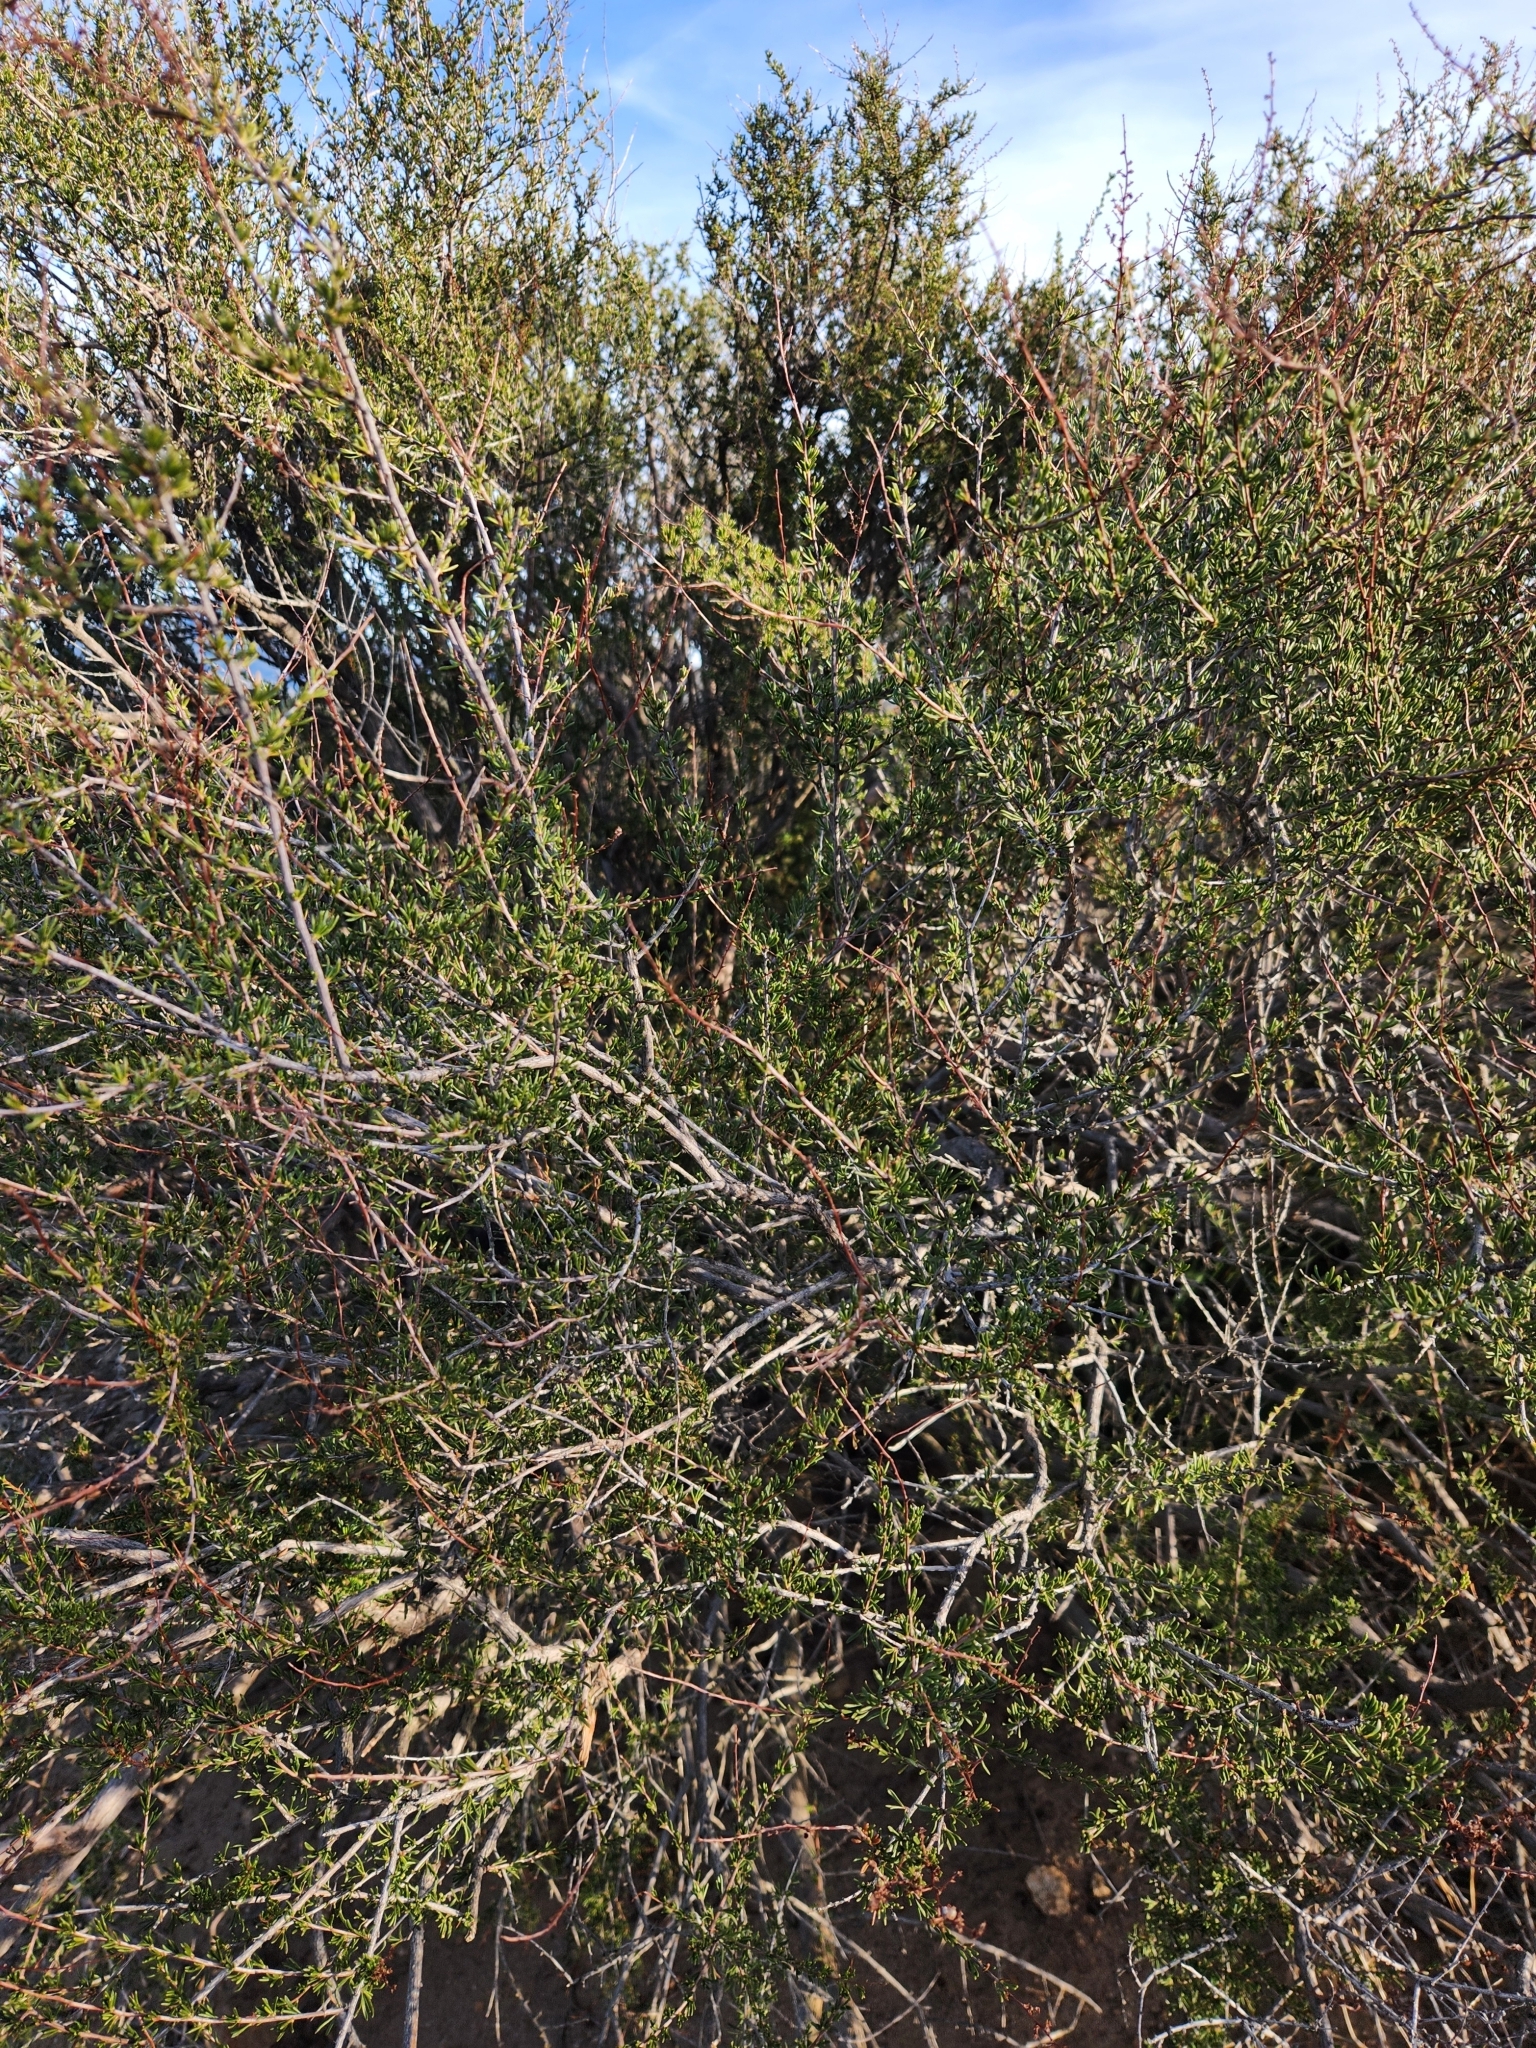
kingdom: Plantae
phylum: Tracheophyta
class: Magnoliopsida
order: Rosales
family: Rosaceae
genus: Adenostoma
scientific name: Adenostoma fasciculatum
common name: Chamise
